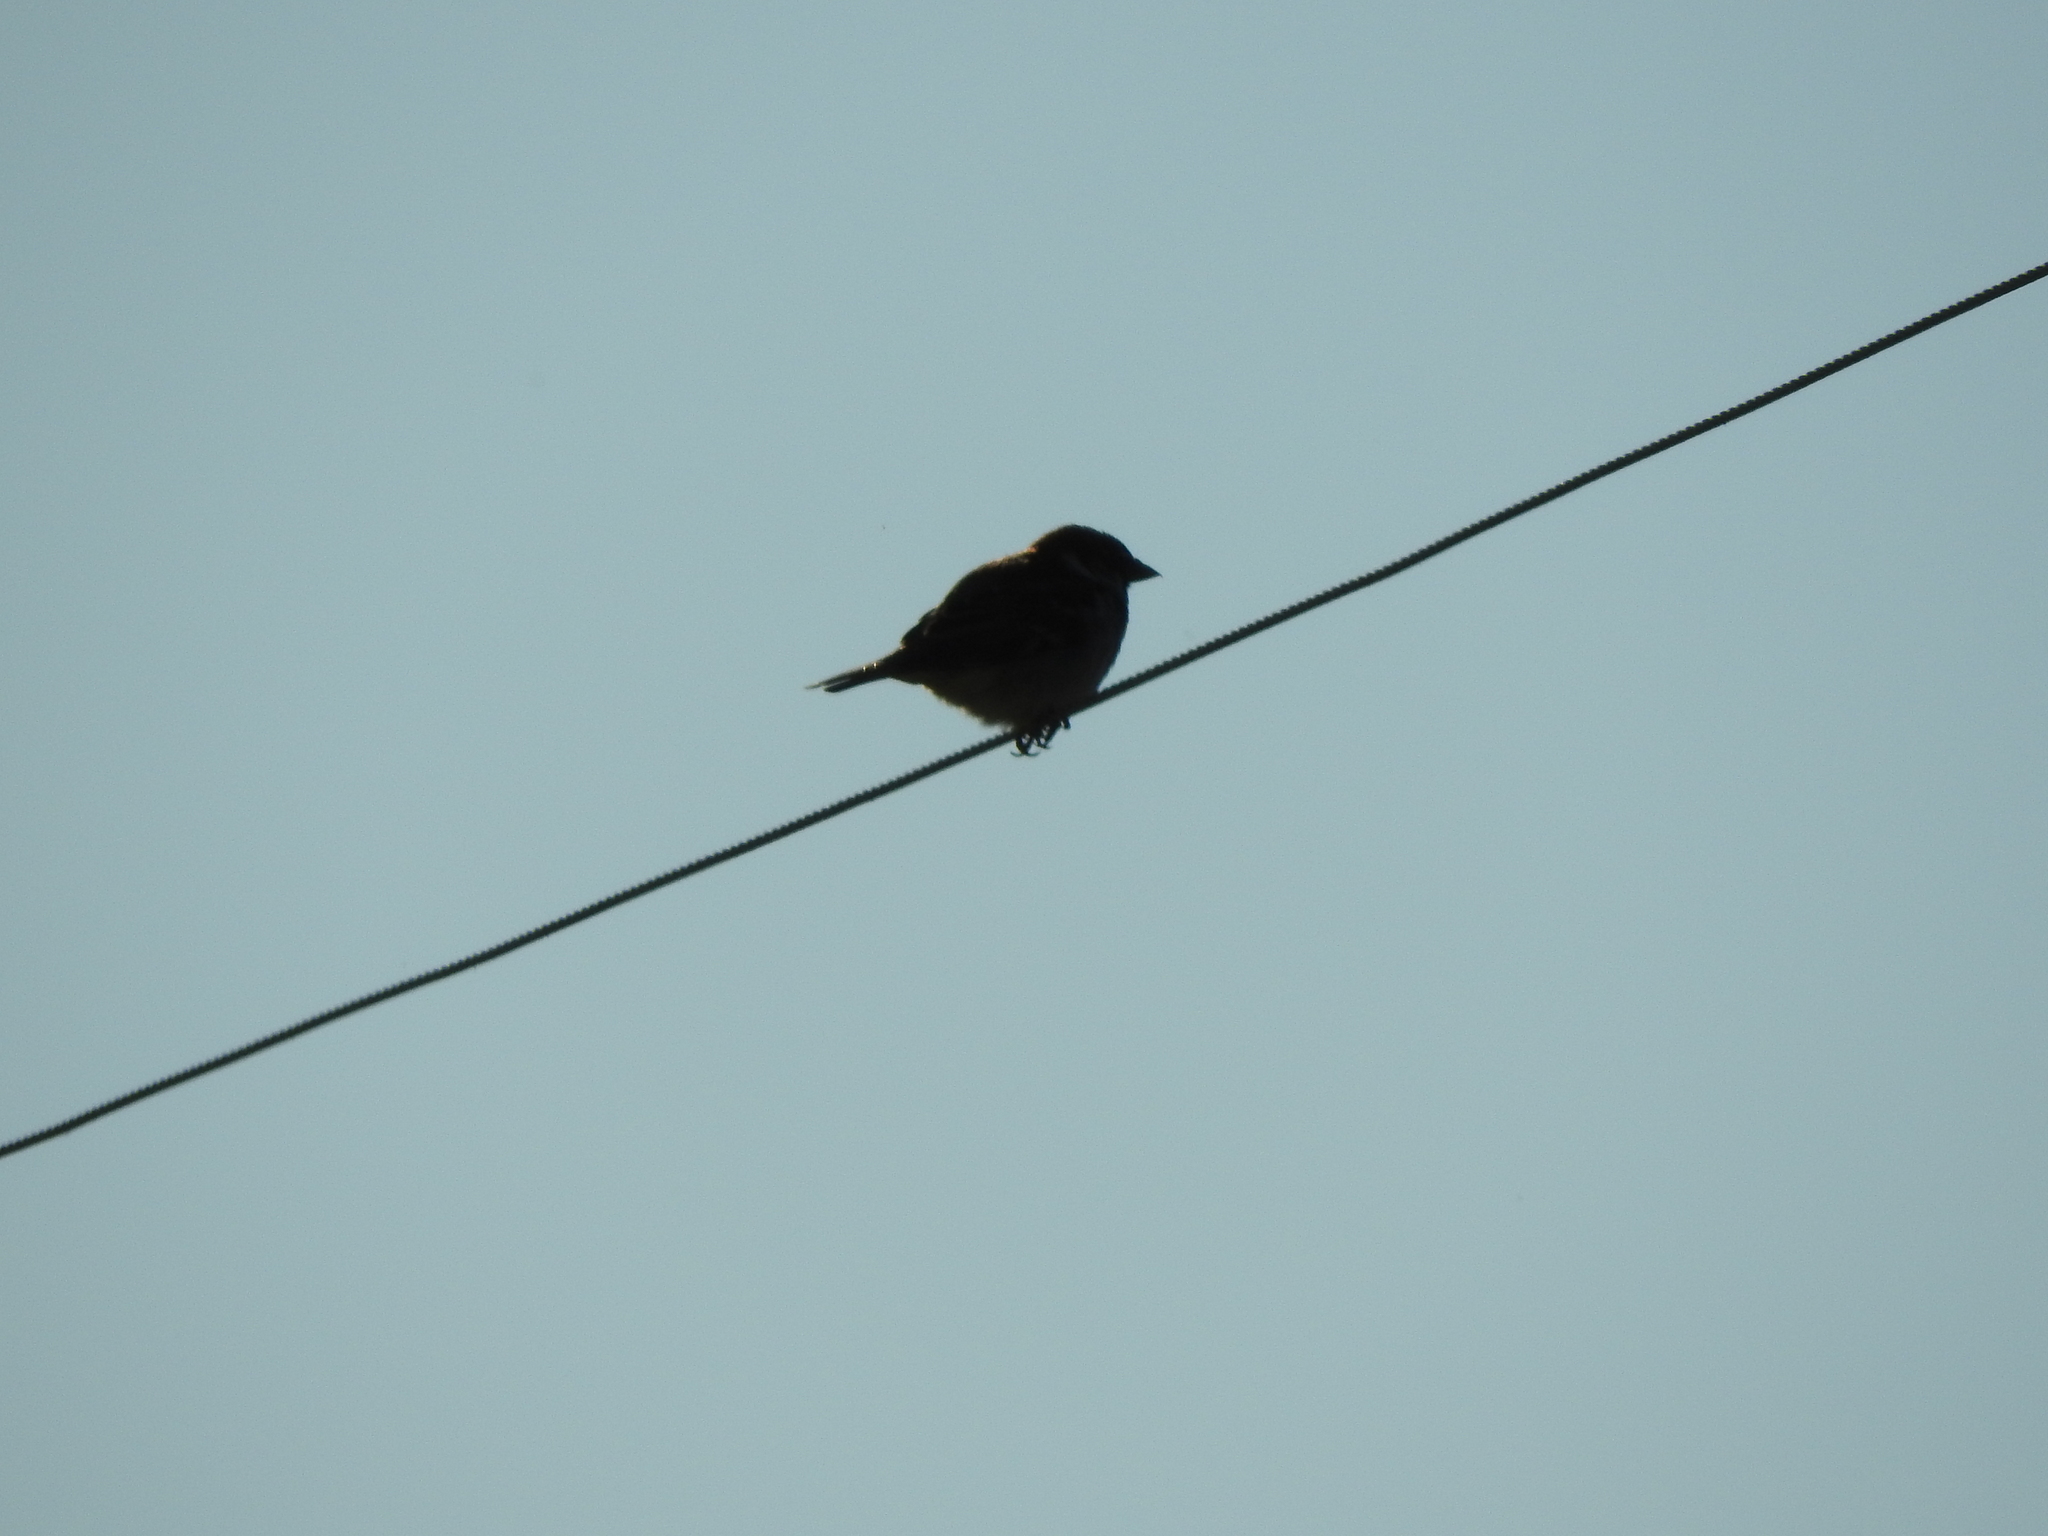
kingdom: Animalia
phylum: Chordata
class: Aves
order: Passeriformes
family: Passeridae
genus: Passer
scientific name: Passer domesticus
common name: House sparrow
